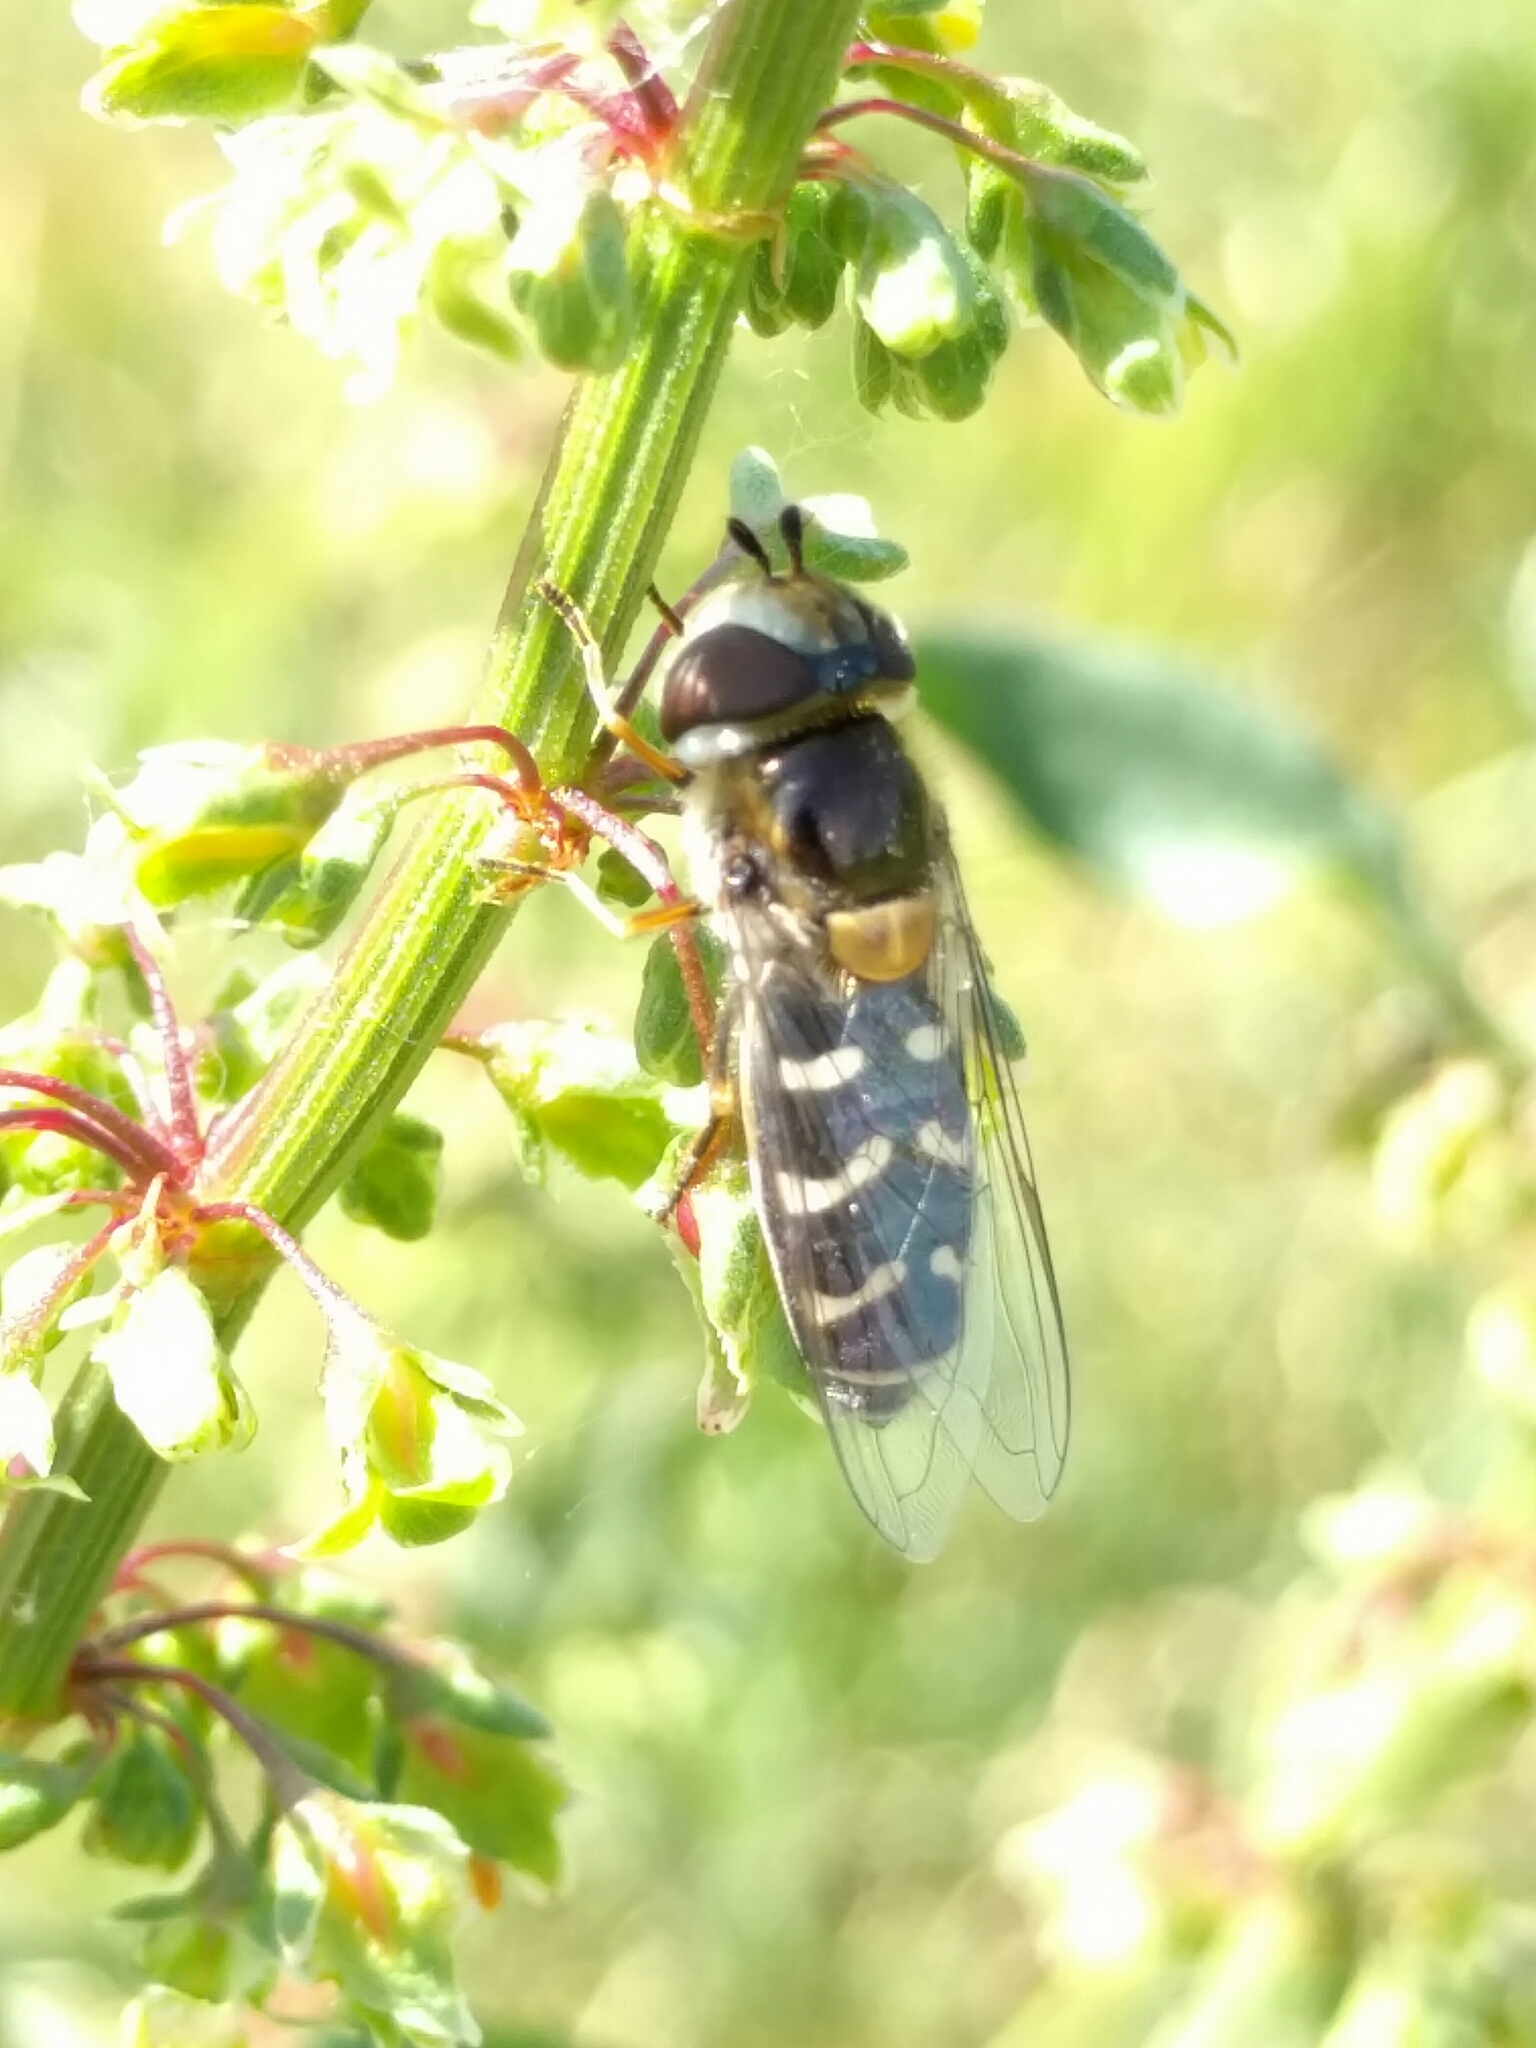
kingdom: Animalia
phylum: Arthropoda
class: Insecta
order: Diptera
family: Syrphidae
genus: Scaeva
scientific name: Scaeva affinis
